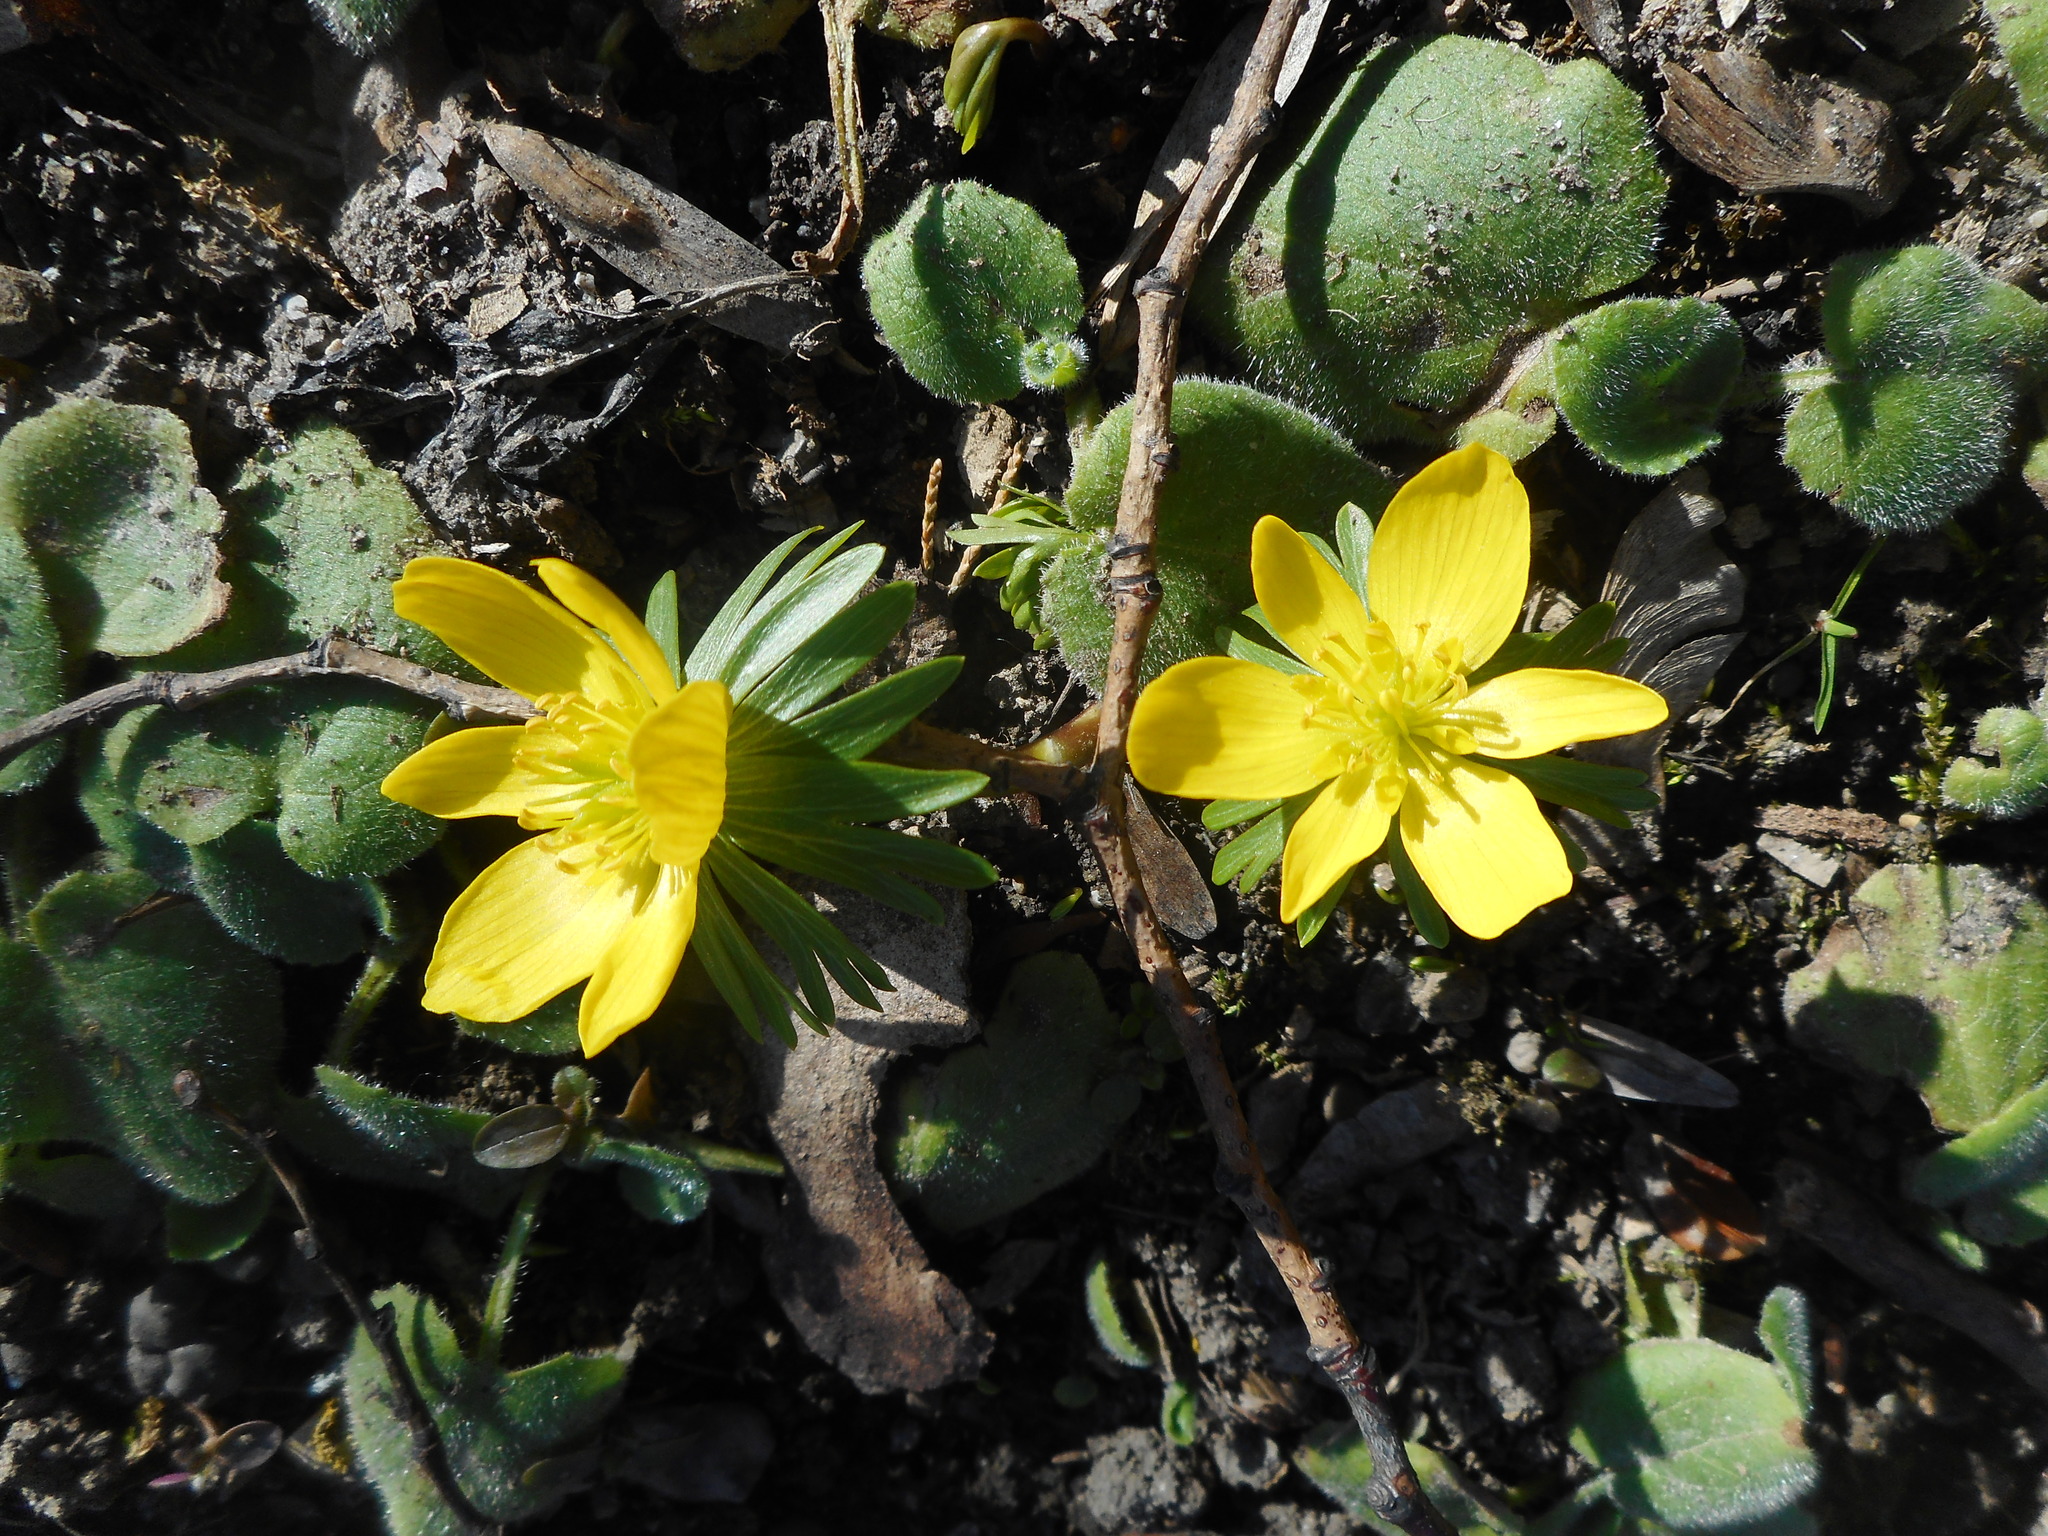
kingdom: Plantae
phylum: Tracheophyta
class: Magnoliopsida
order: Ranunculales
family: Ranunculaceae
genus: Eranthis
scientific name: Eranthis hyemalis
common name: Winter aconite
